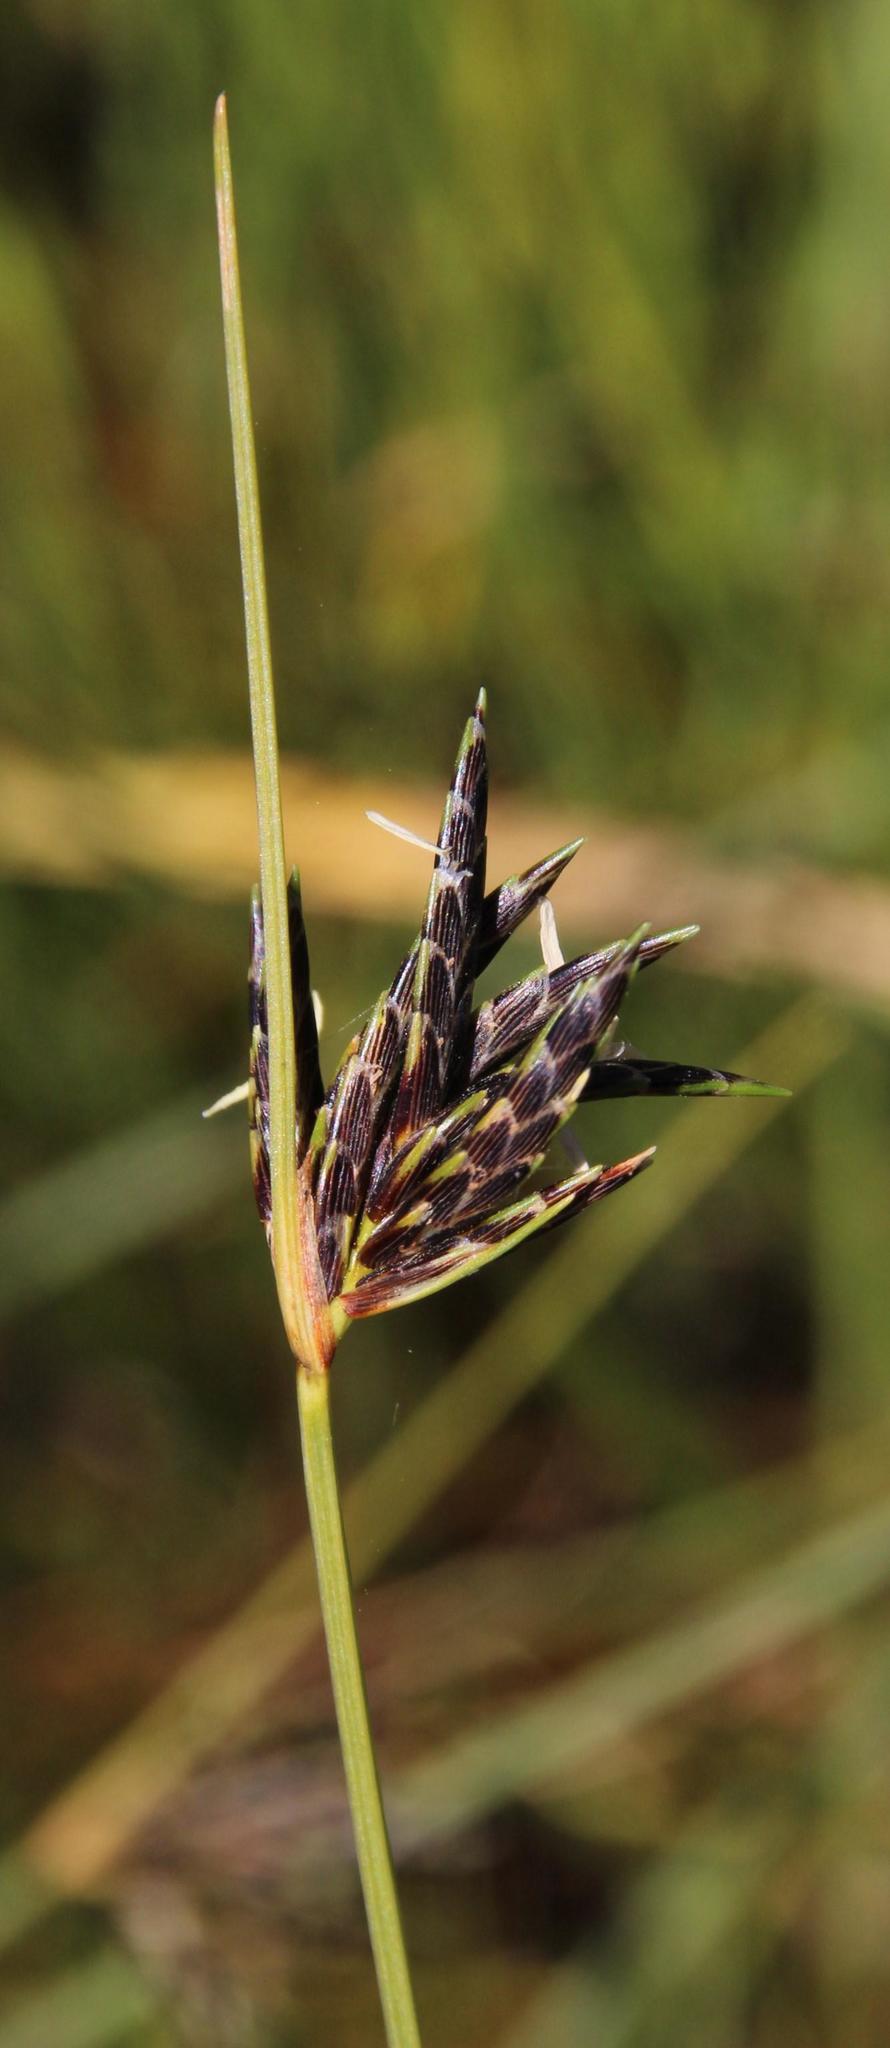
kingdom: Plantae
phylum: Tracheophyta
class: Liliopsida
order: Poales
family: Cyperaceae
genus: Ficinia
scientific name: Ficinia polystachya
